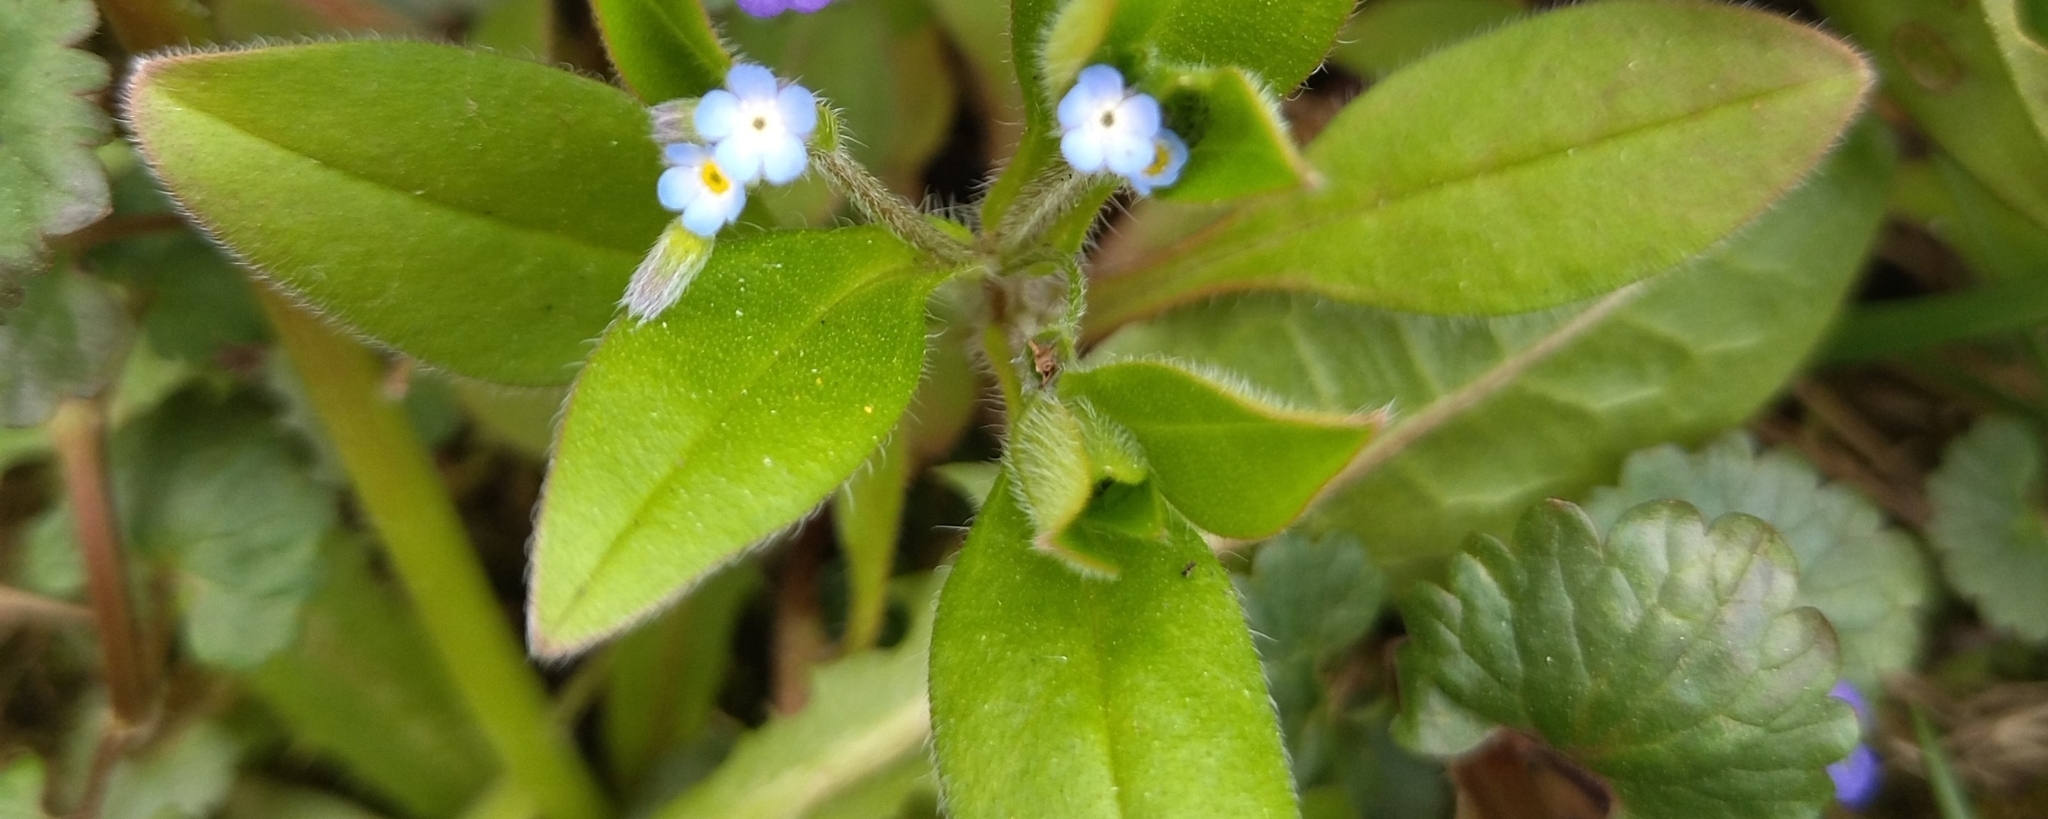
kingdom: Plantae
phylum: Tracheophyta
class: Magnoliopsida
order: Boraginales
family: Boraginaceae
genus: Myosotis
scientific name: Myosotis sparsiflora
